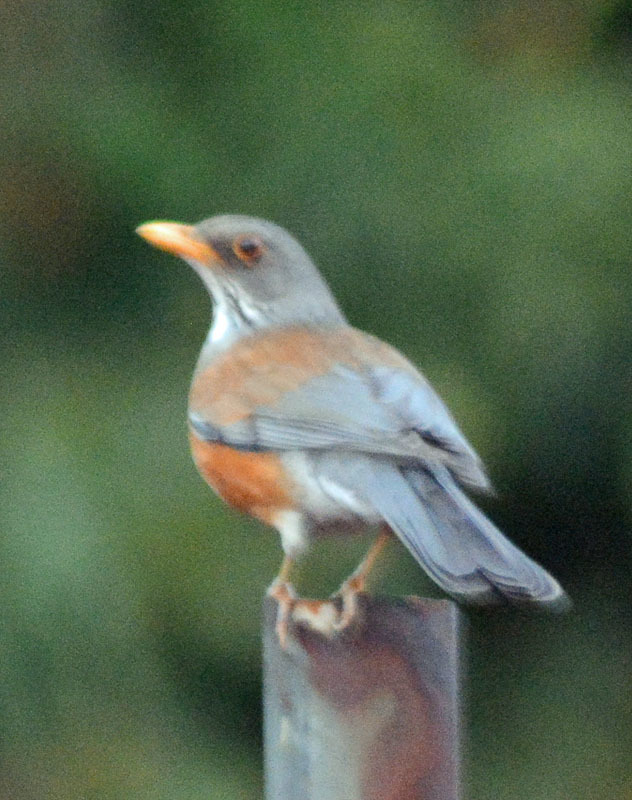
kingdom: Animalia
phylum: Chordata
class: Aves
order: Passeriformes
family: Turdidae
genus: Turdus
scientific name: Turdus rufopalliatus
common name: Rufous-backed robin
